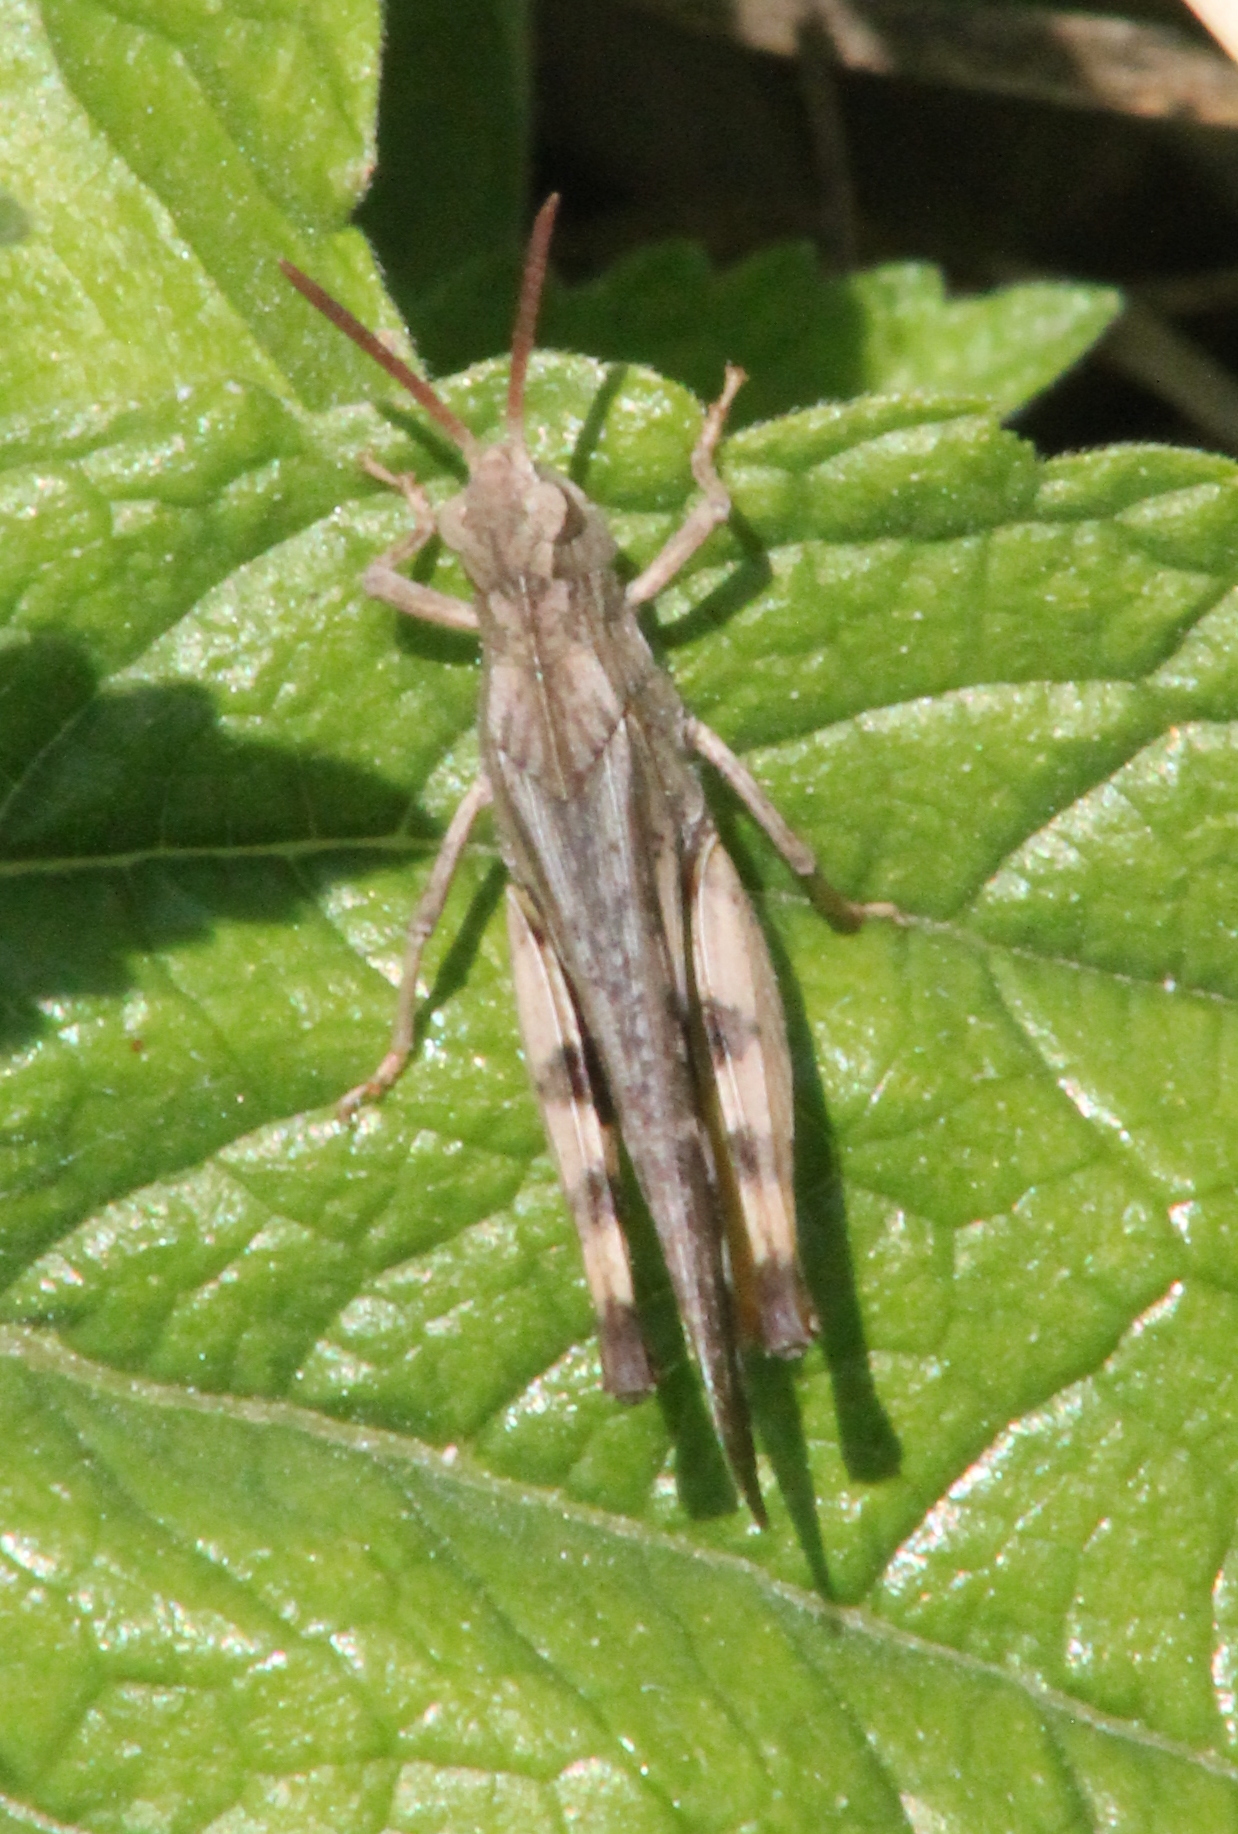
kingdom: Animalia
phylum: Arthropoda
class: Insecta
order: Orthoptera
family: Acrididae
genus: Chortophaga
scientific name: Chortophaga viridifasciata
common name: Green-striped grasshopper
